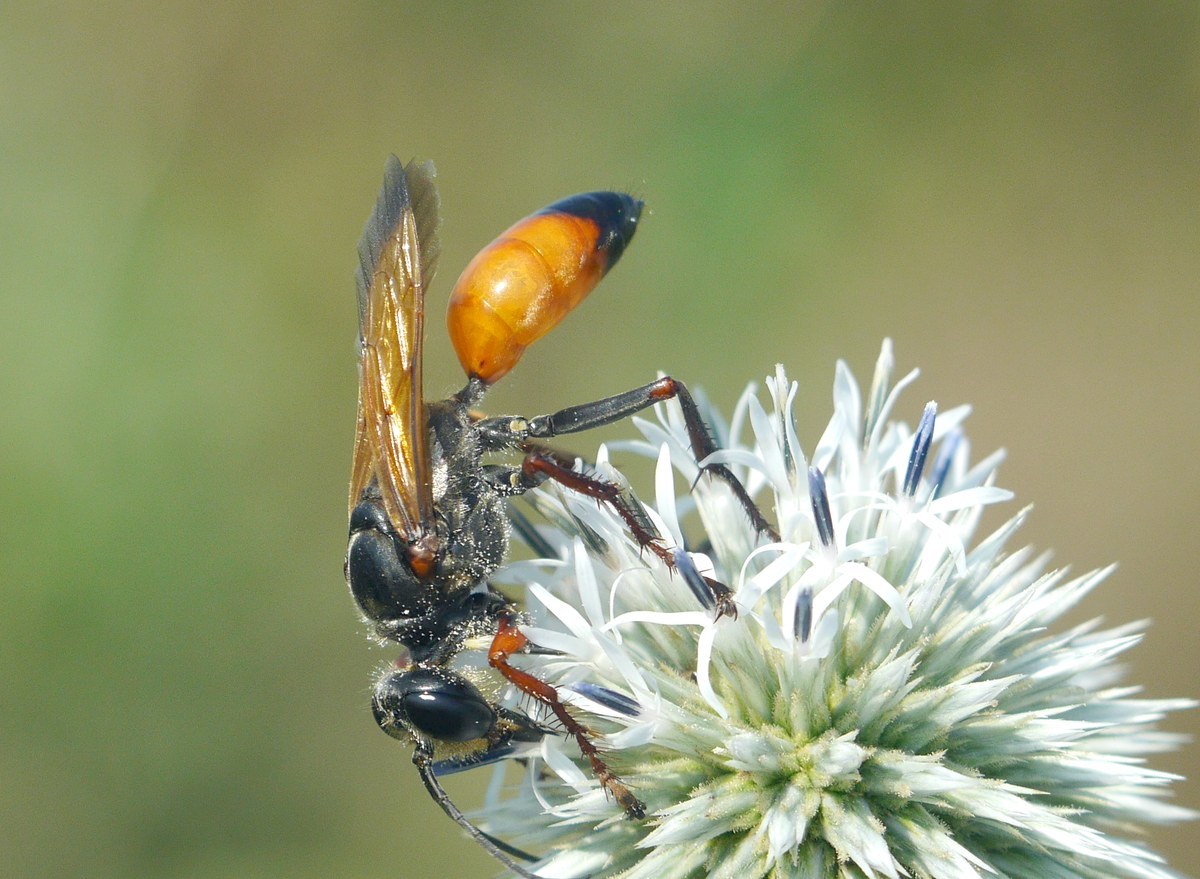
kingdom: Animalia
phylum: Arthropoda
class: Insecta
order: Hymenoptera
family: Sphecidae
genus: Sphex
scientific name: Sphex flavipennis
